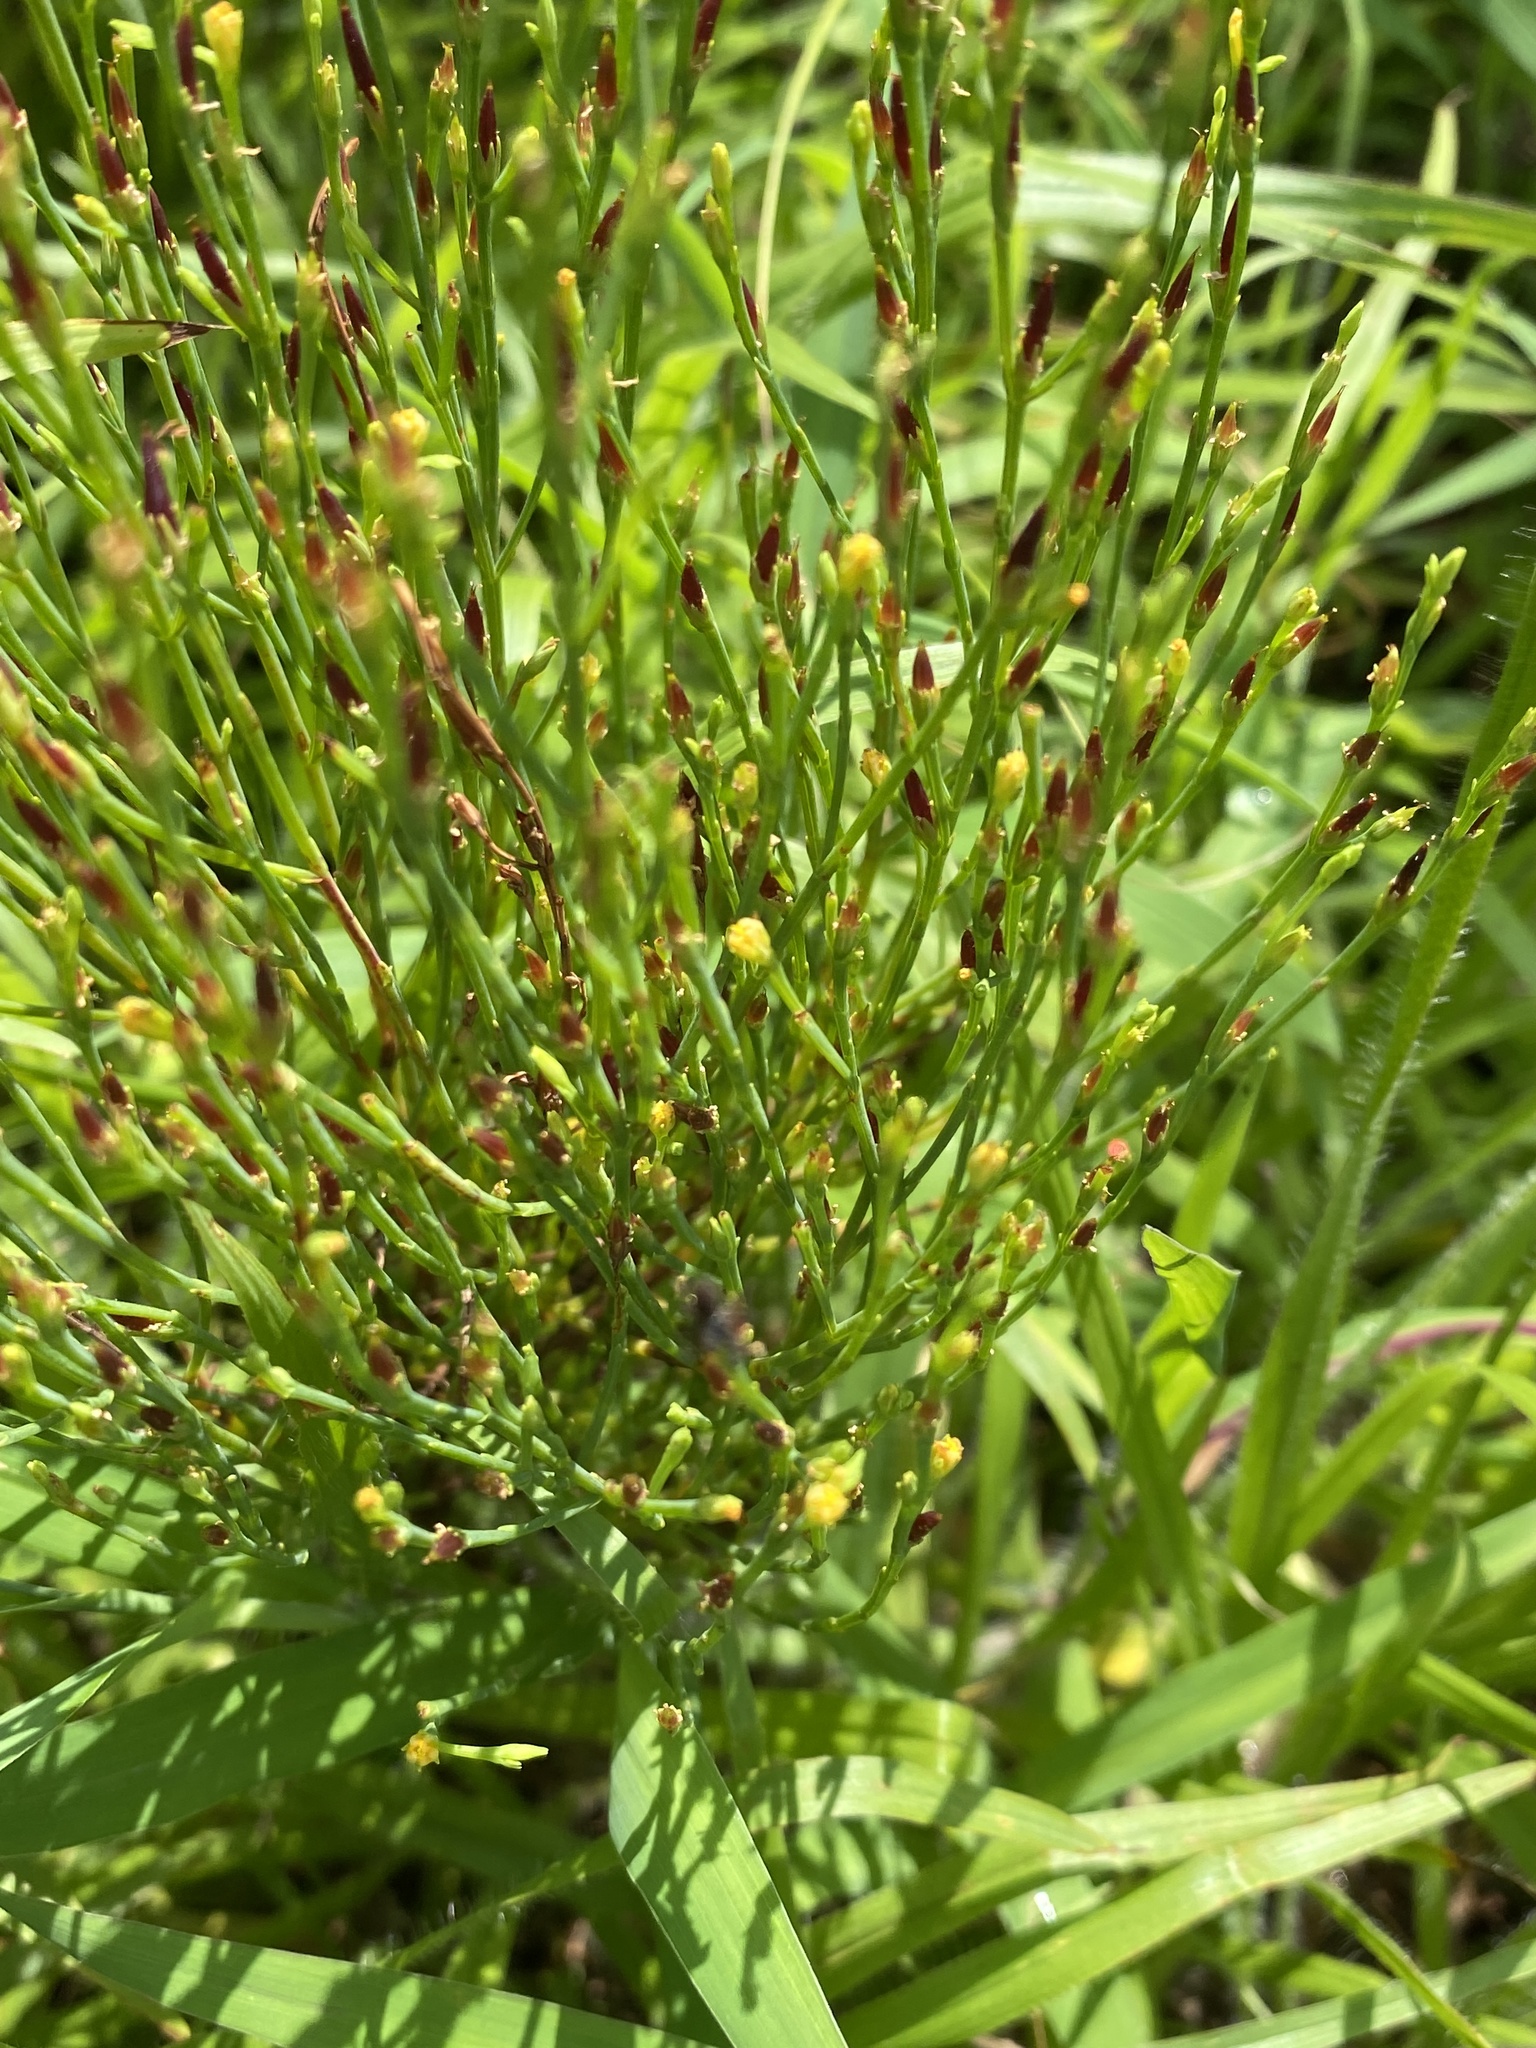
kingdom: Plantae
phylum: Tracheophyta
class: Magnoliopsida
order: Malpighiales
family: Hypericaceae
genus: Hypericum
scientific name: Hypericum gentianoides
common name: Gentian-leaved st. john's-wort
